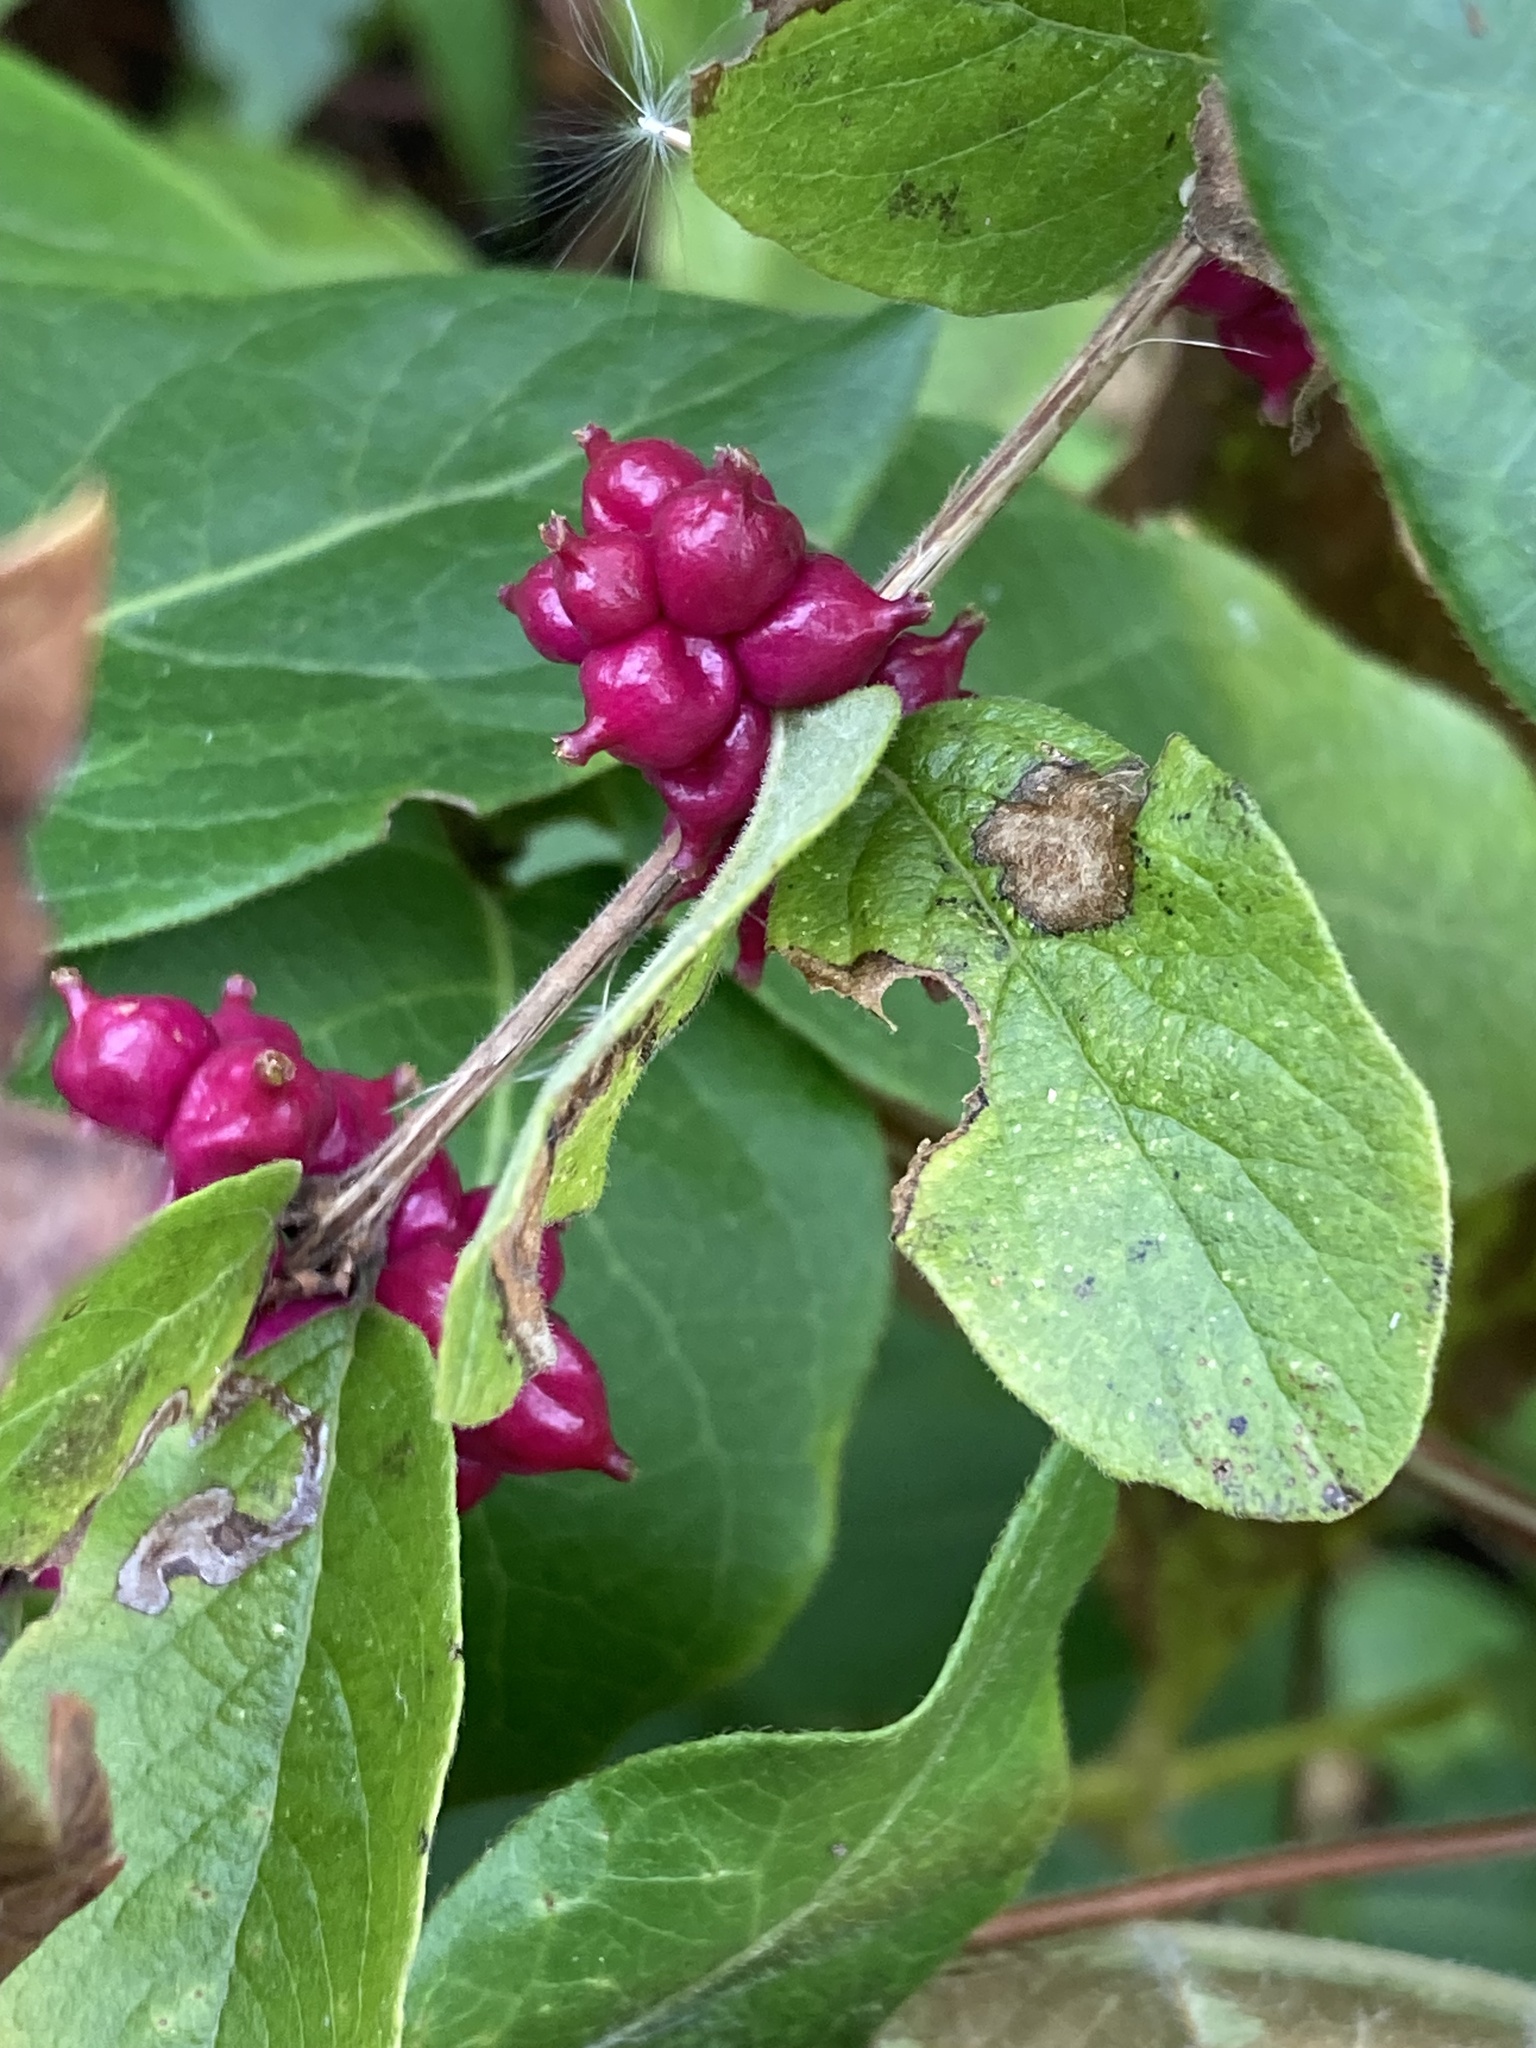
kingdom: Plantae
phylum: Tracheophyta
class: Magnoliopsida
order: Dipsacales
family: Caprifoliaceae
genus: Symphoricarpos
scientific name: Symphoricarpos orbiculatus
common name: Coralberry
